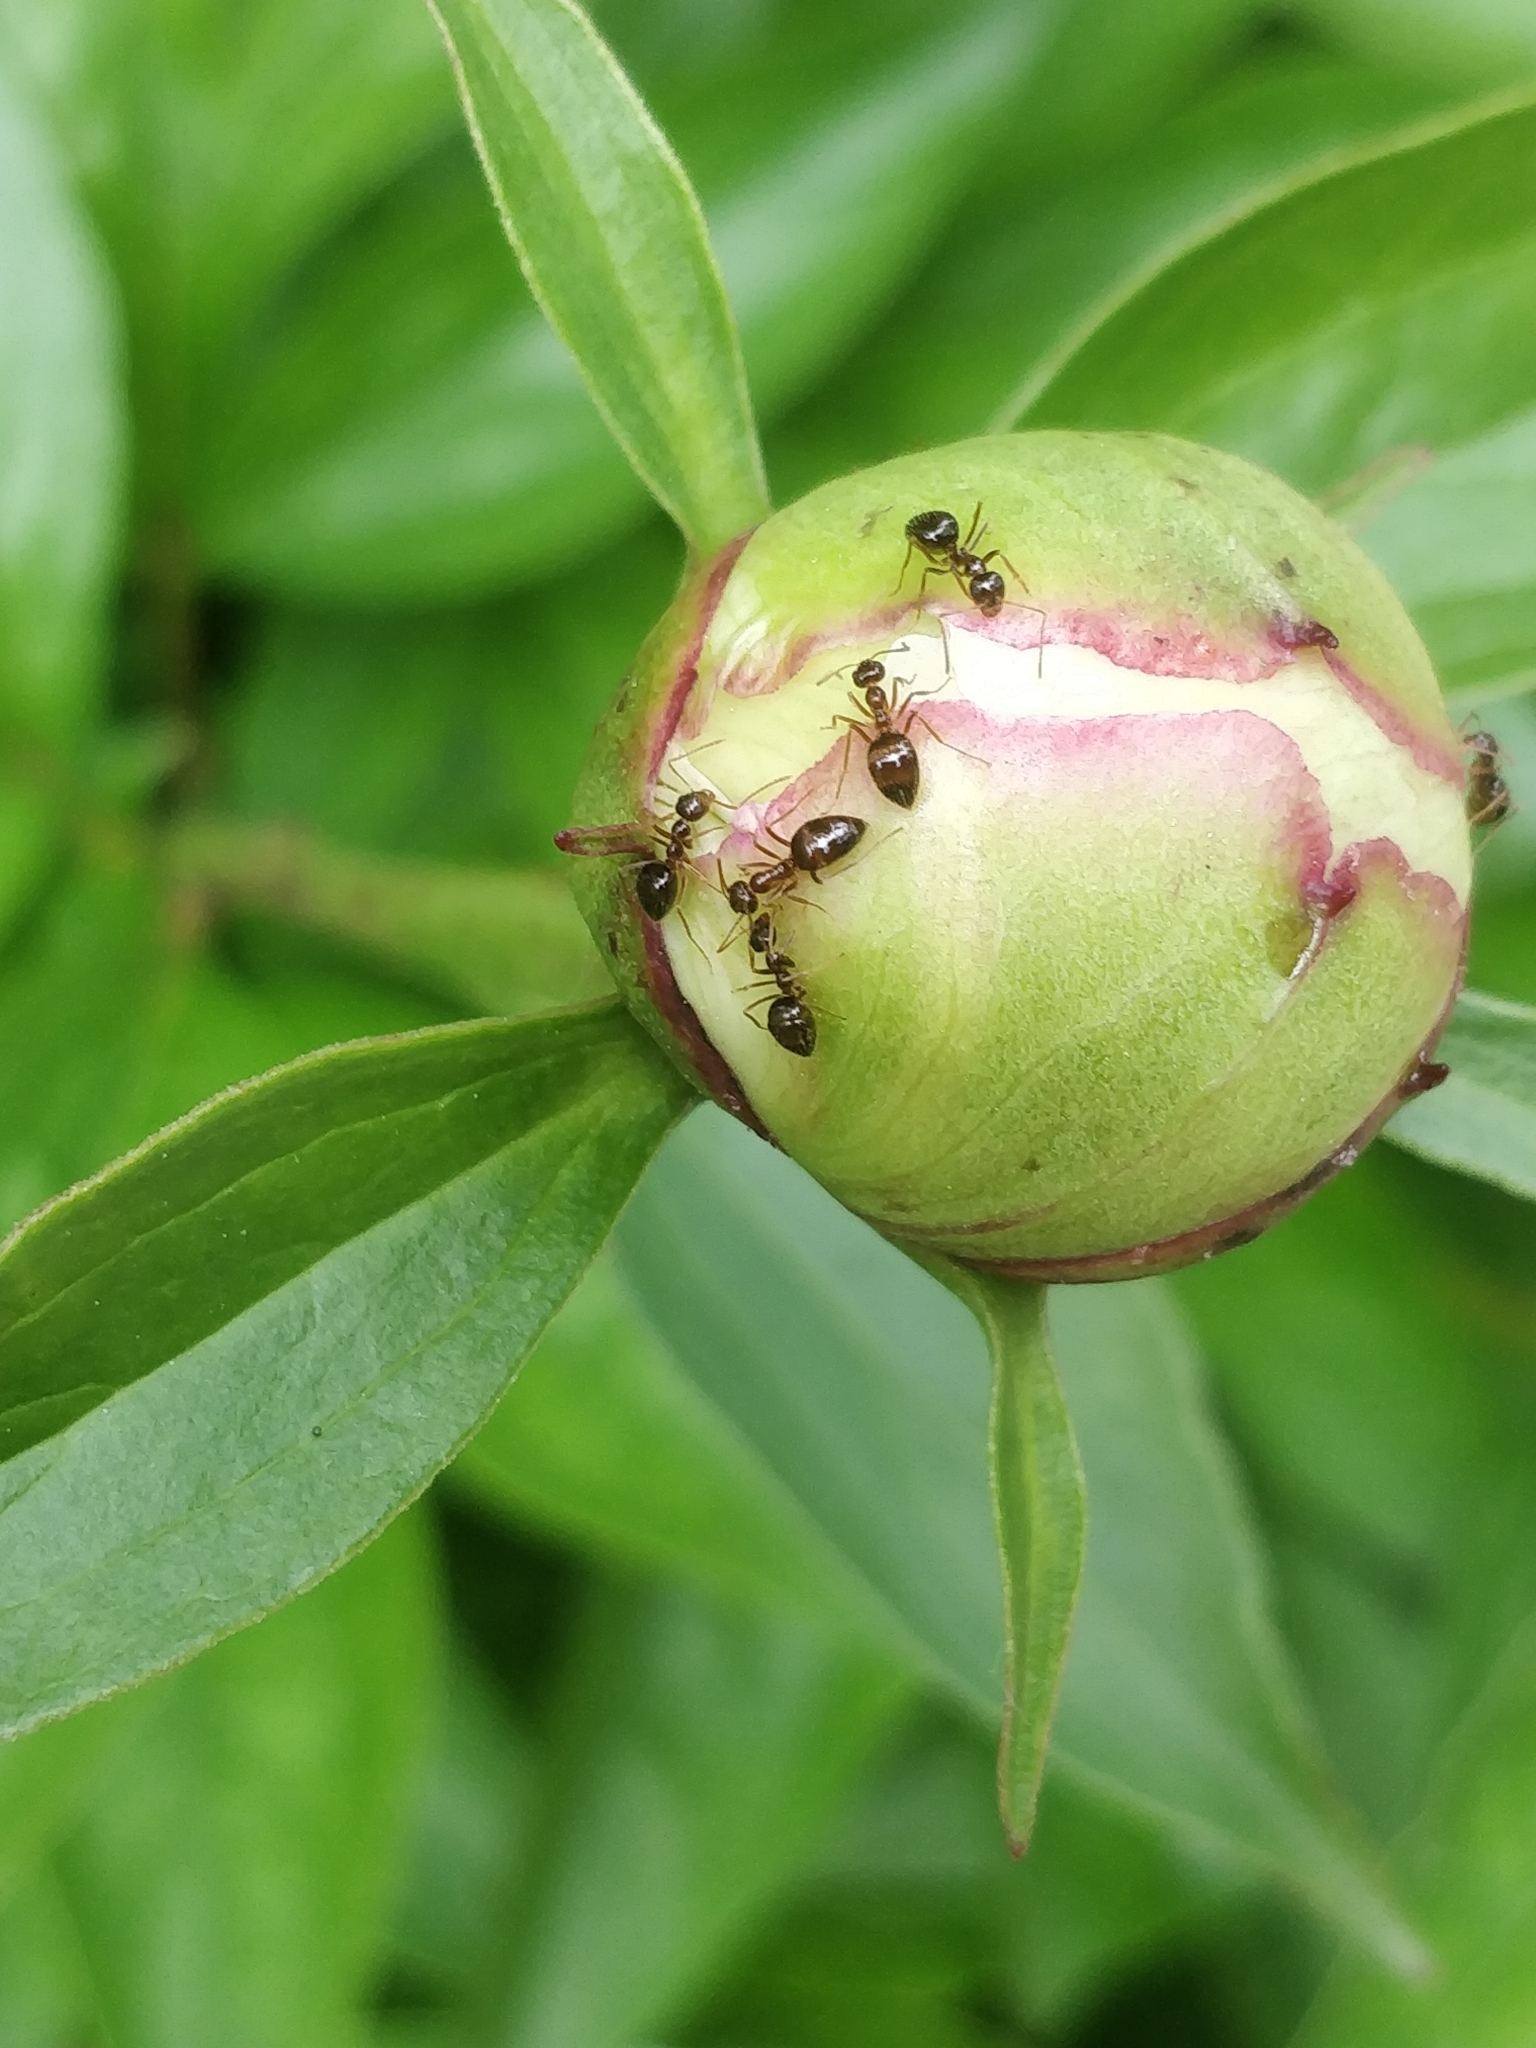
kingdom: Animalia
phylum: Arthropoda
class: Insecta
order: Hymenoptera
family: Formicidae
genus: Prenolepis
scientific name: Prenolepis imparis
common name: Small honey ant
